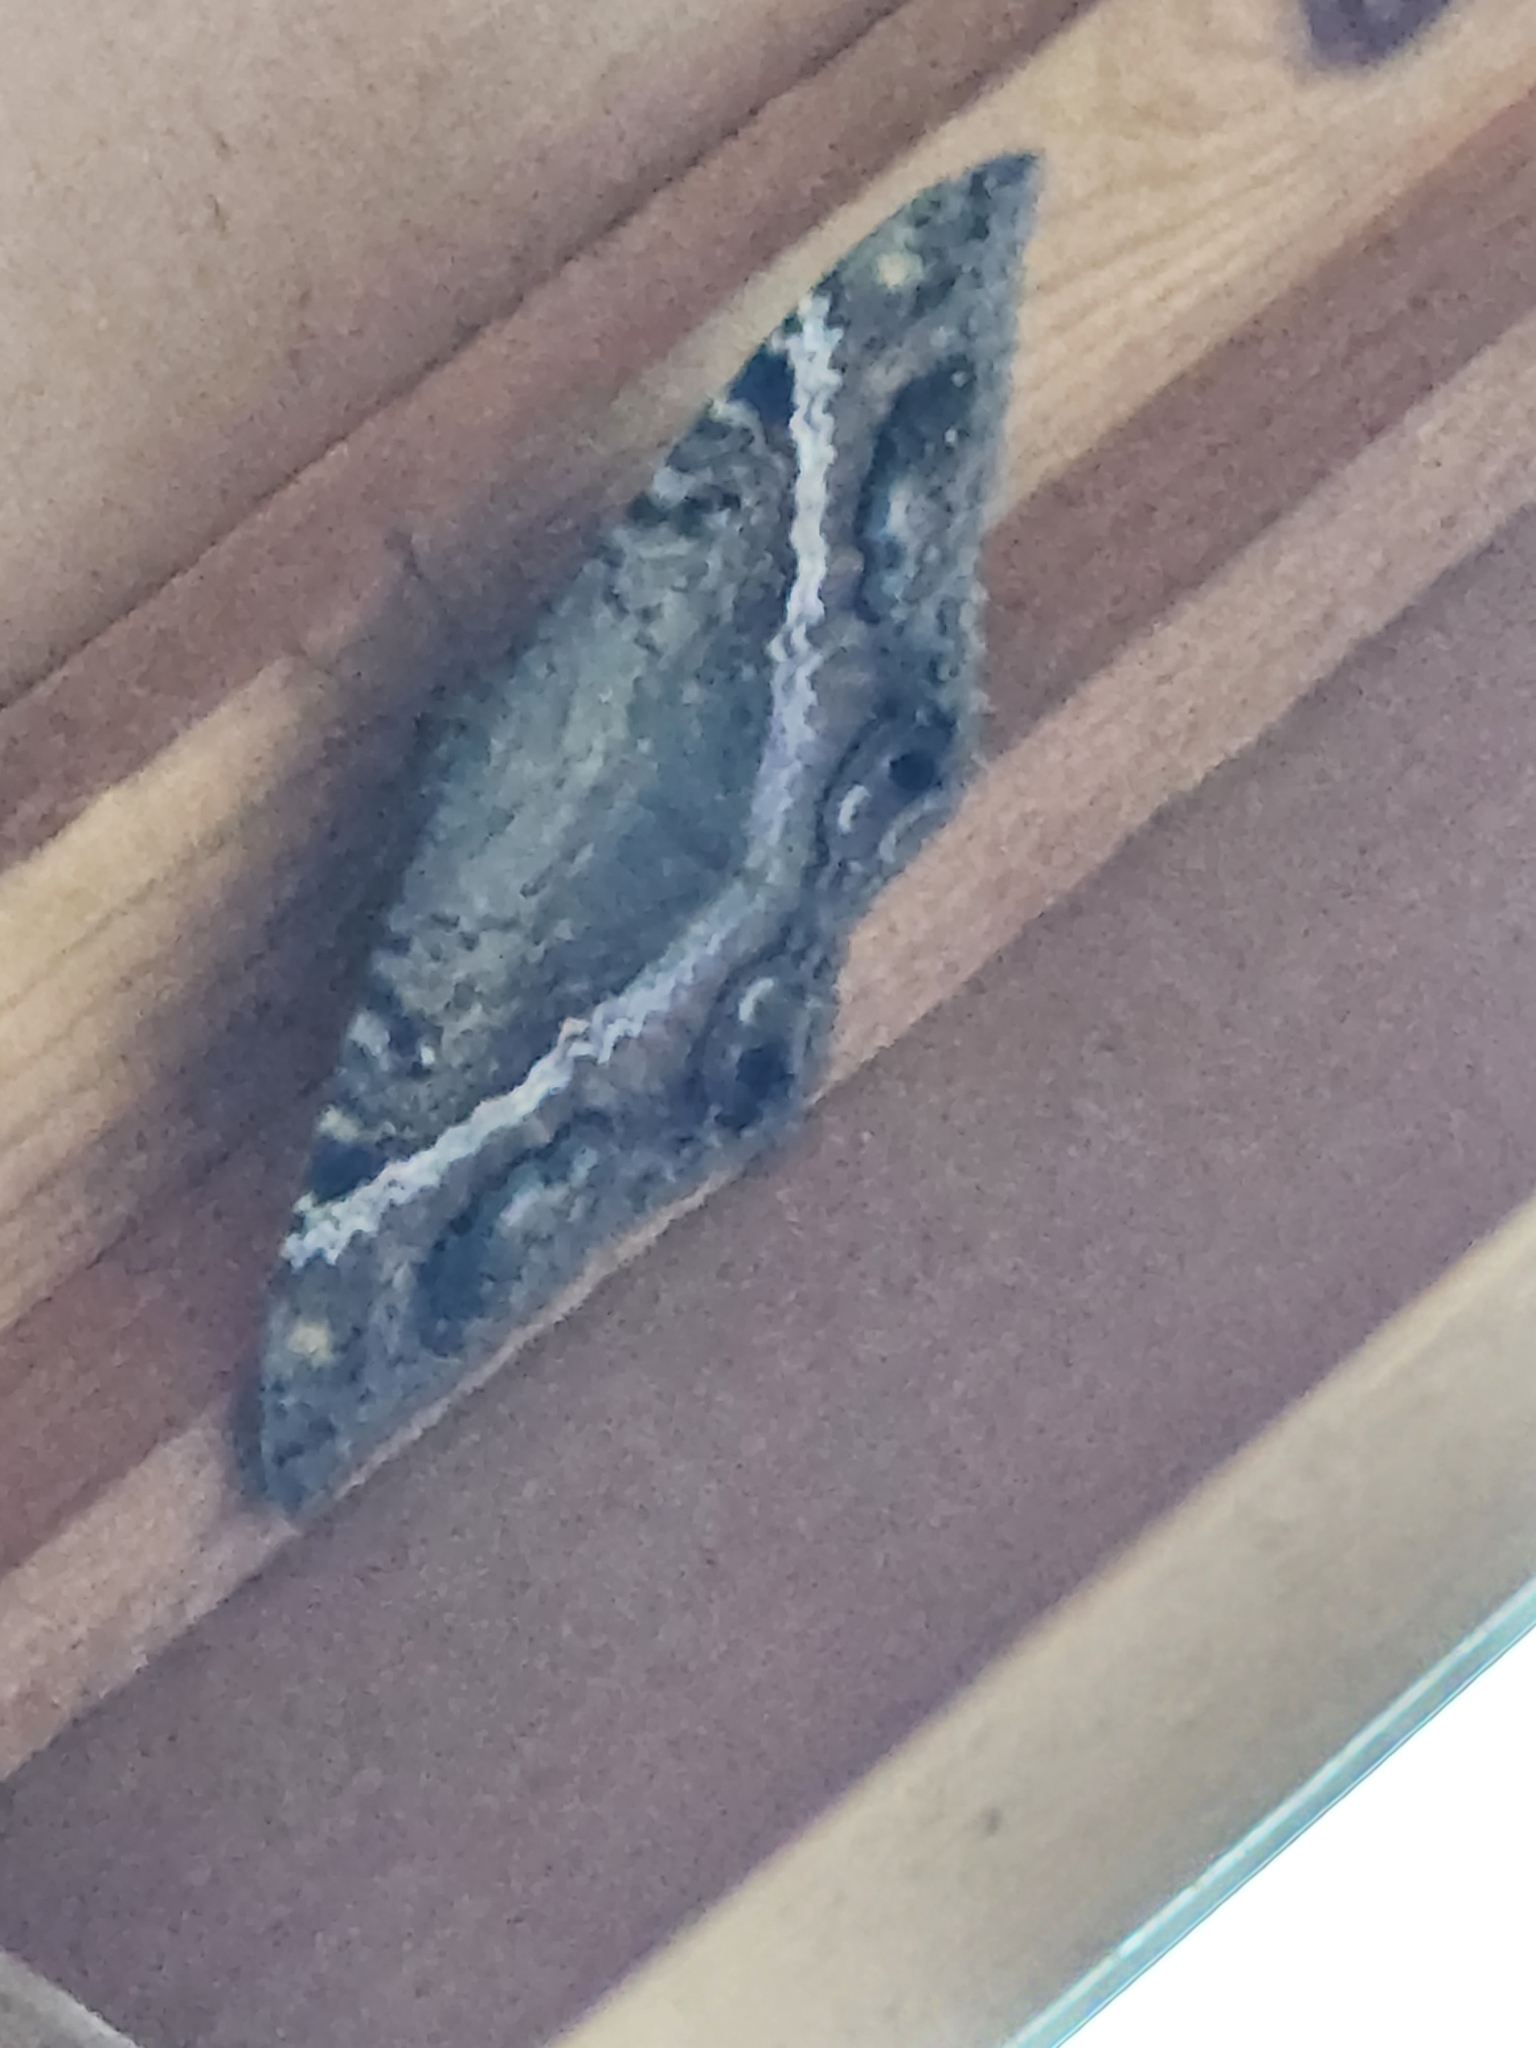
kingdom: Animalia
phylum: Arthropoda
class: Insecta
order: Lepidoptera
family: Erebidae
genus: Ascalapha
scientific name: Ascalapha odorata
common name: Black witch
